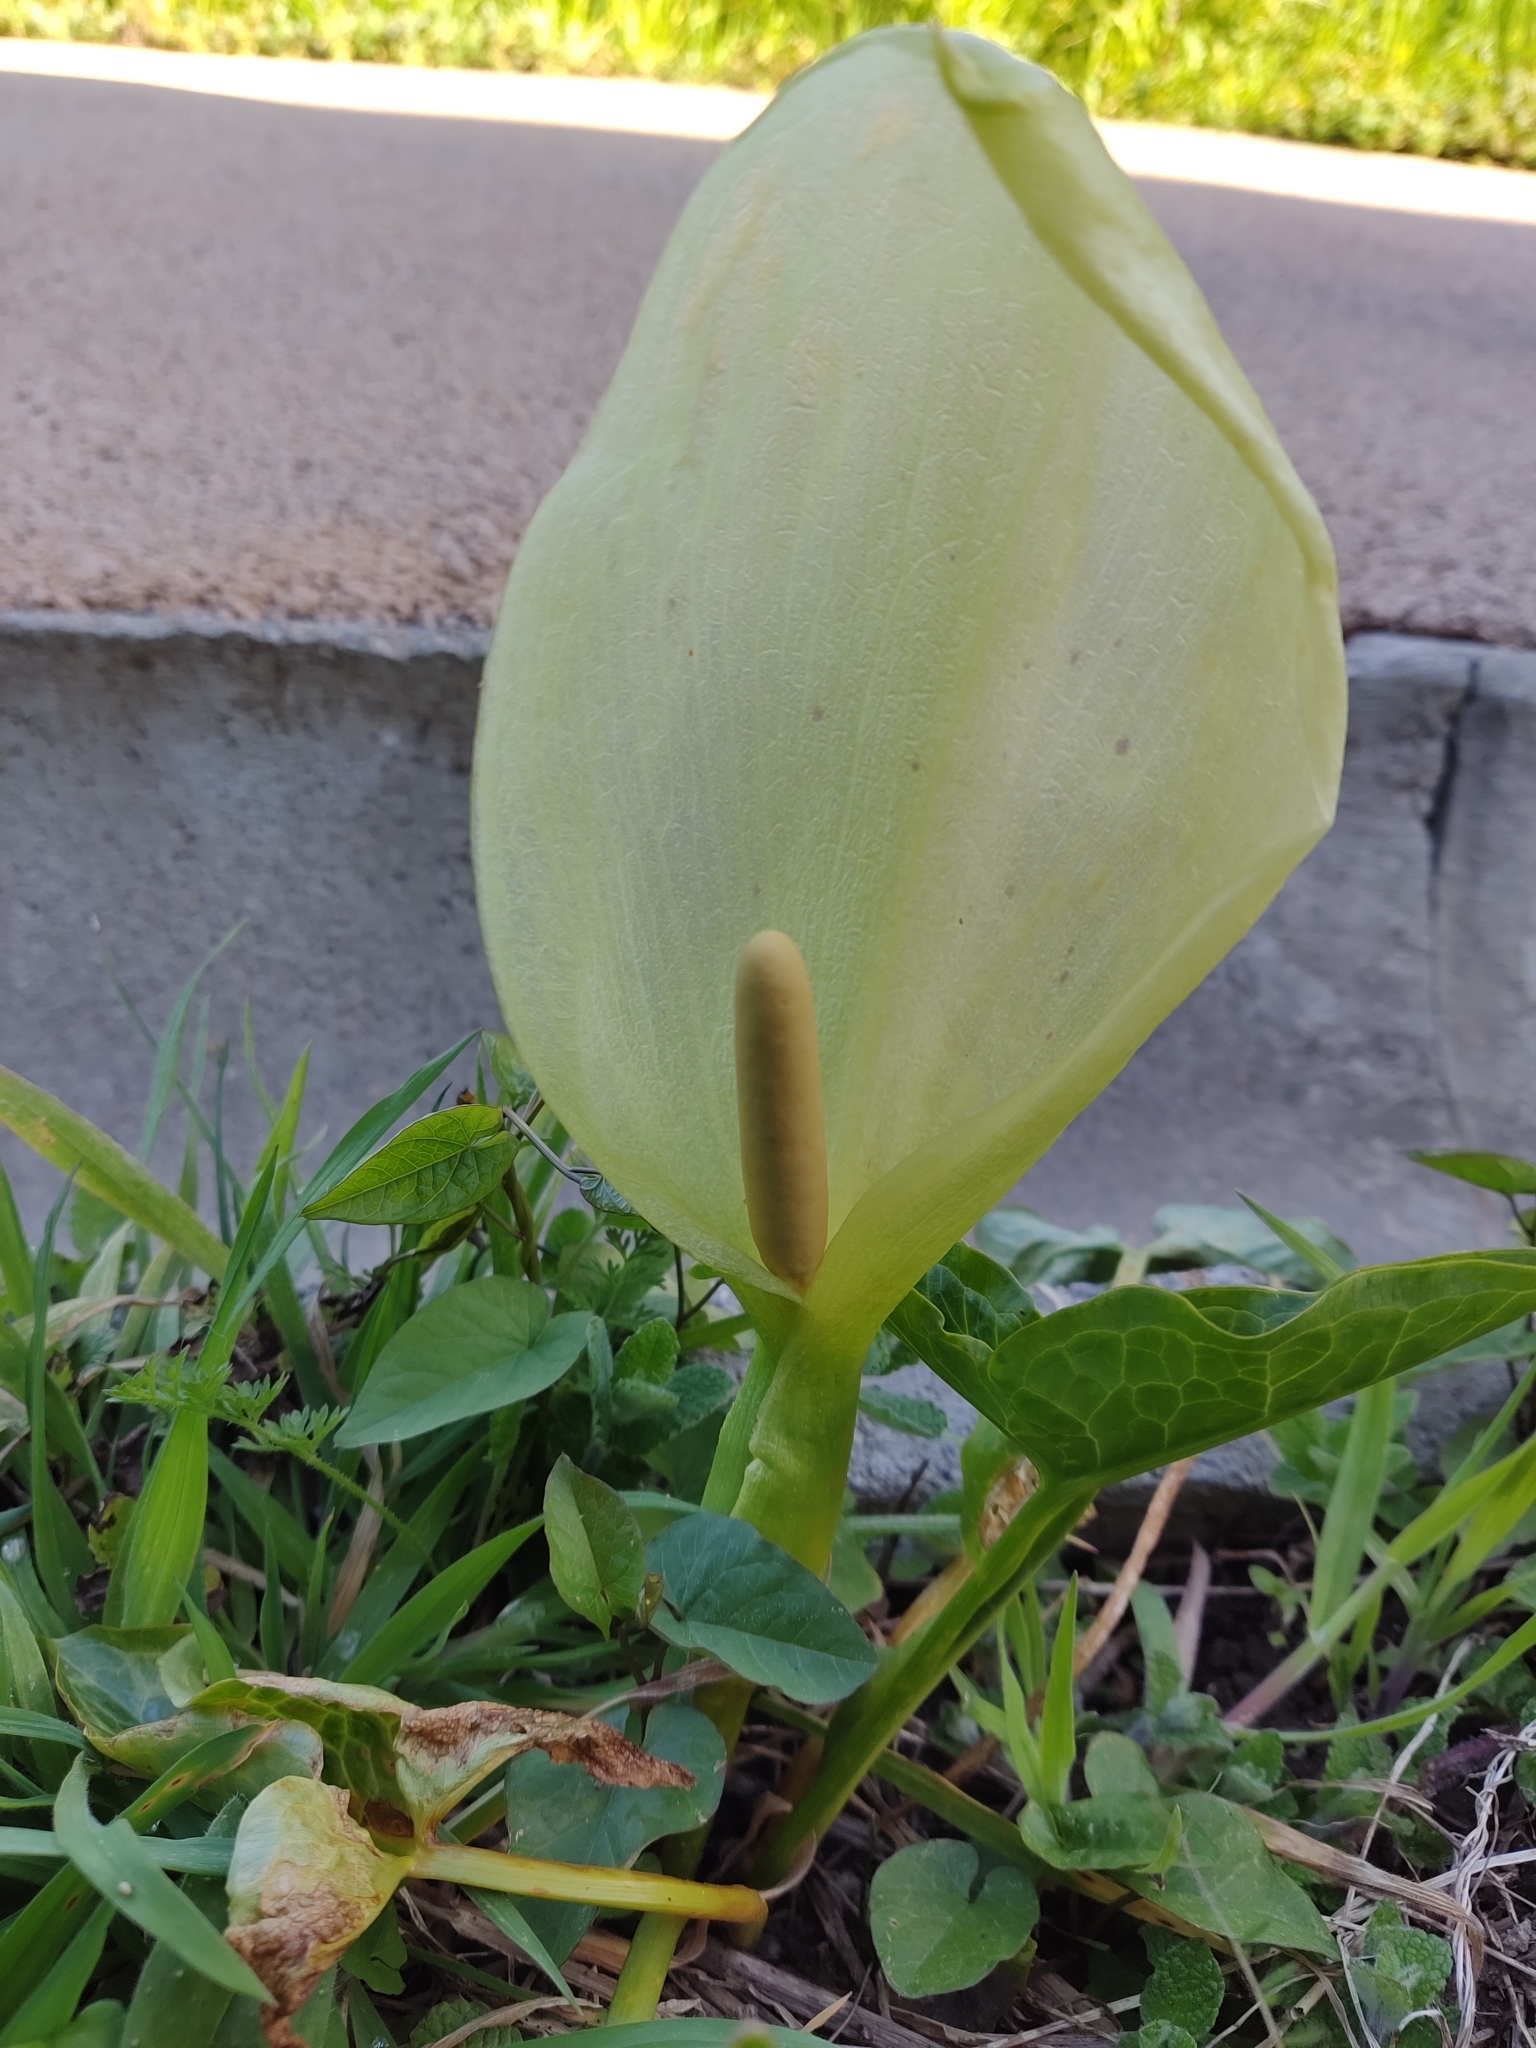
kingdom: Plantae
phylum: Tracheophyta
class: Liliopsida
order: Alismatales
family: Araceae
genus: Arum
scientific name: Arum italicum
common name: Italian lords-and-ladies
